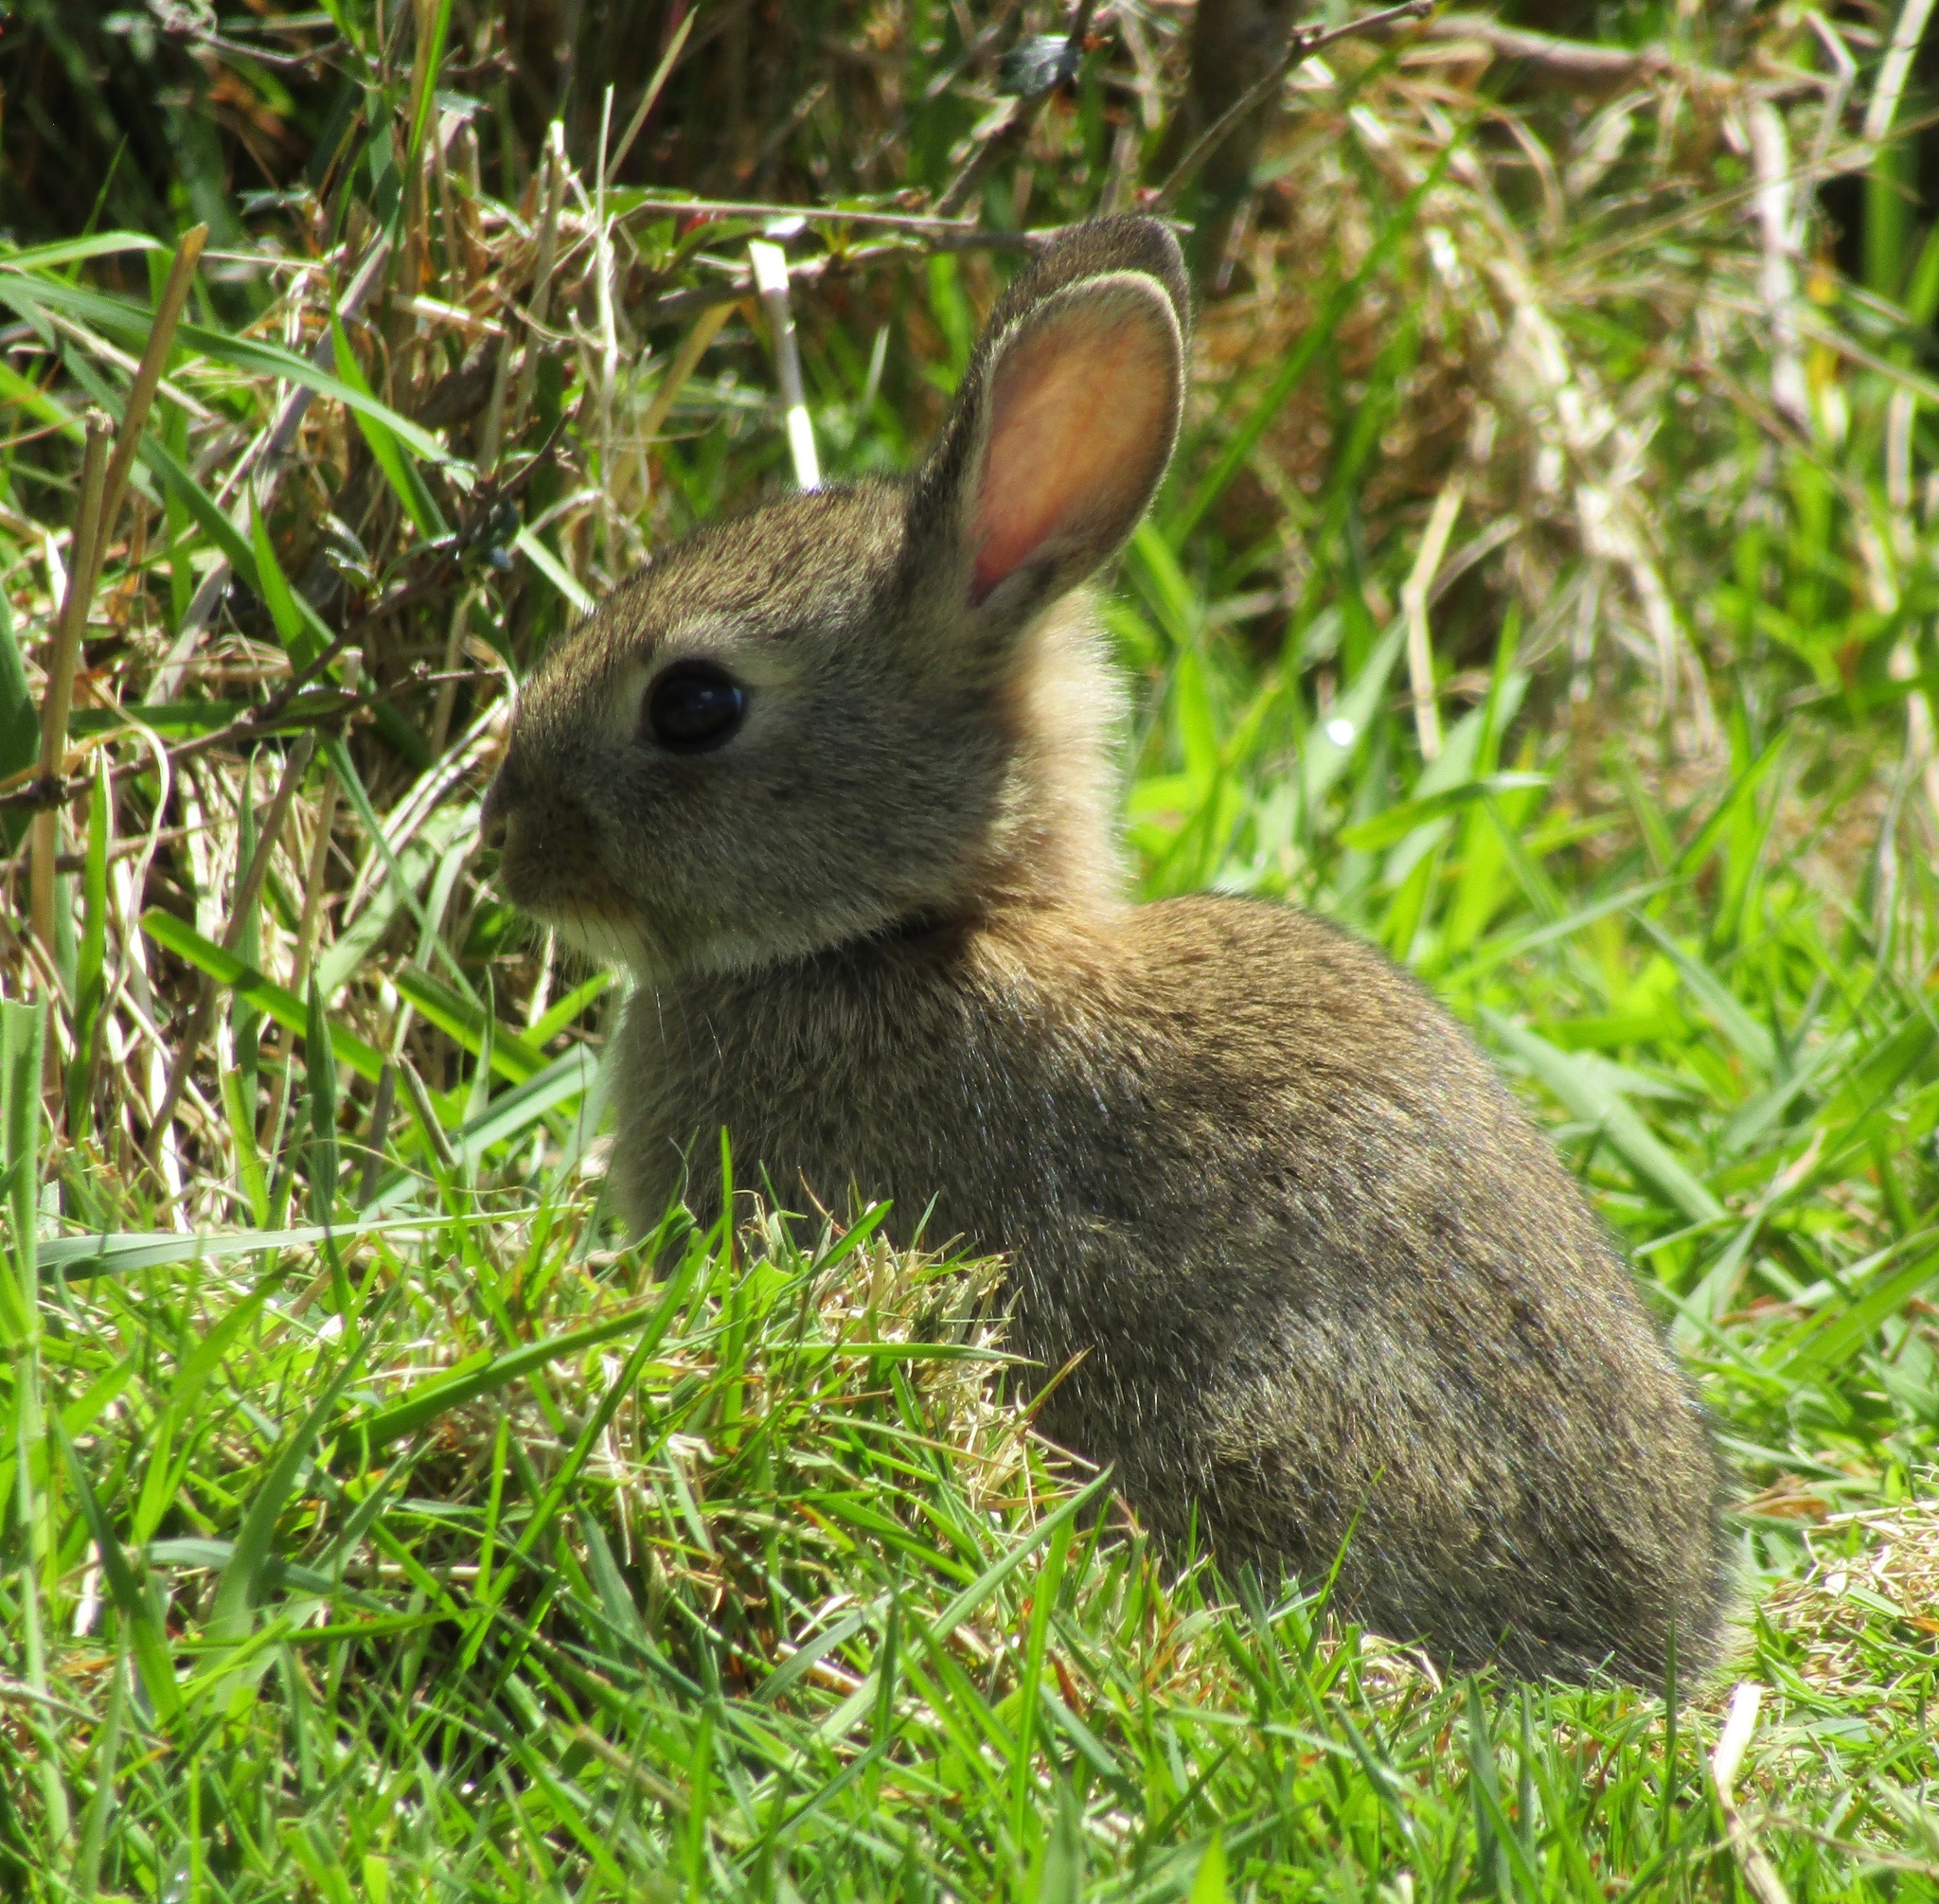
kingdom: Animalia
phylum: Chordata
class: Mammalia
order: Lagomorpha
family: Leporidae
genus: Oryctolagus
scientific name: Oryctolagus cuniculus
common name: European rabbit
